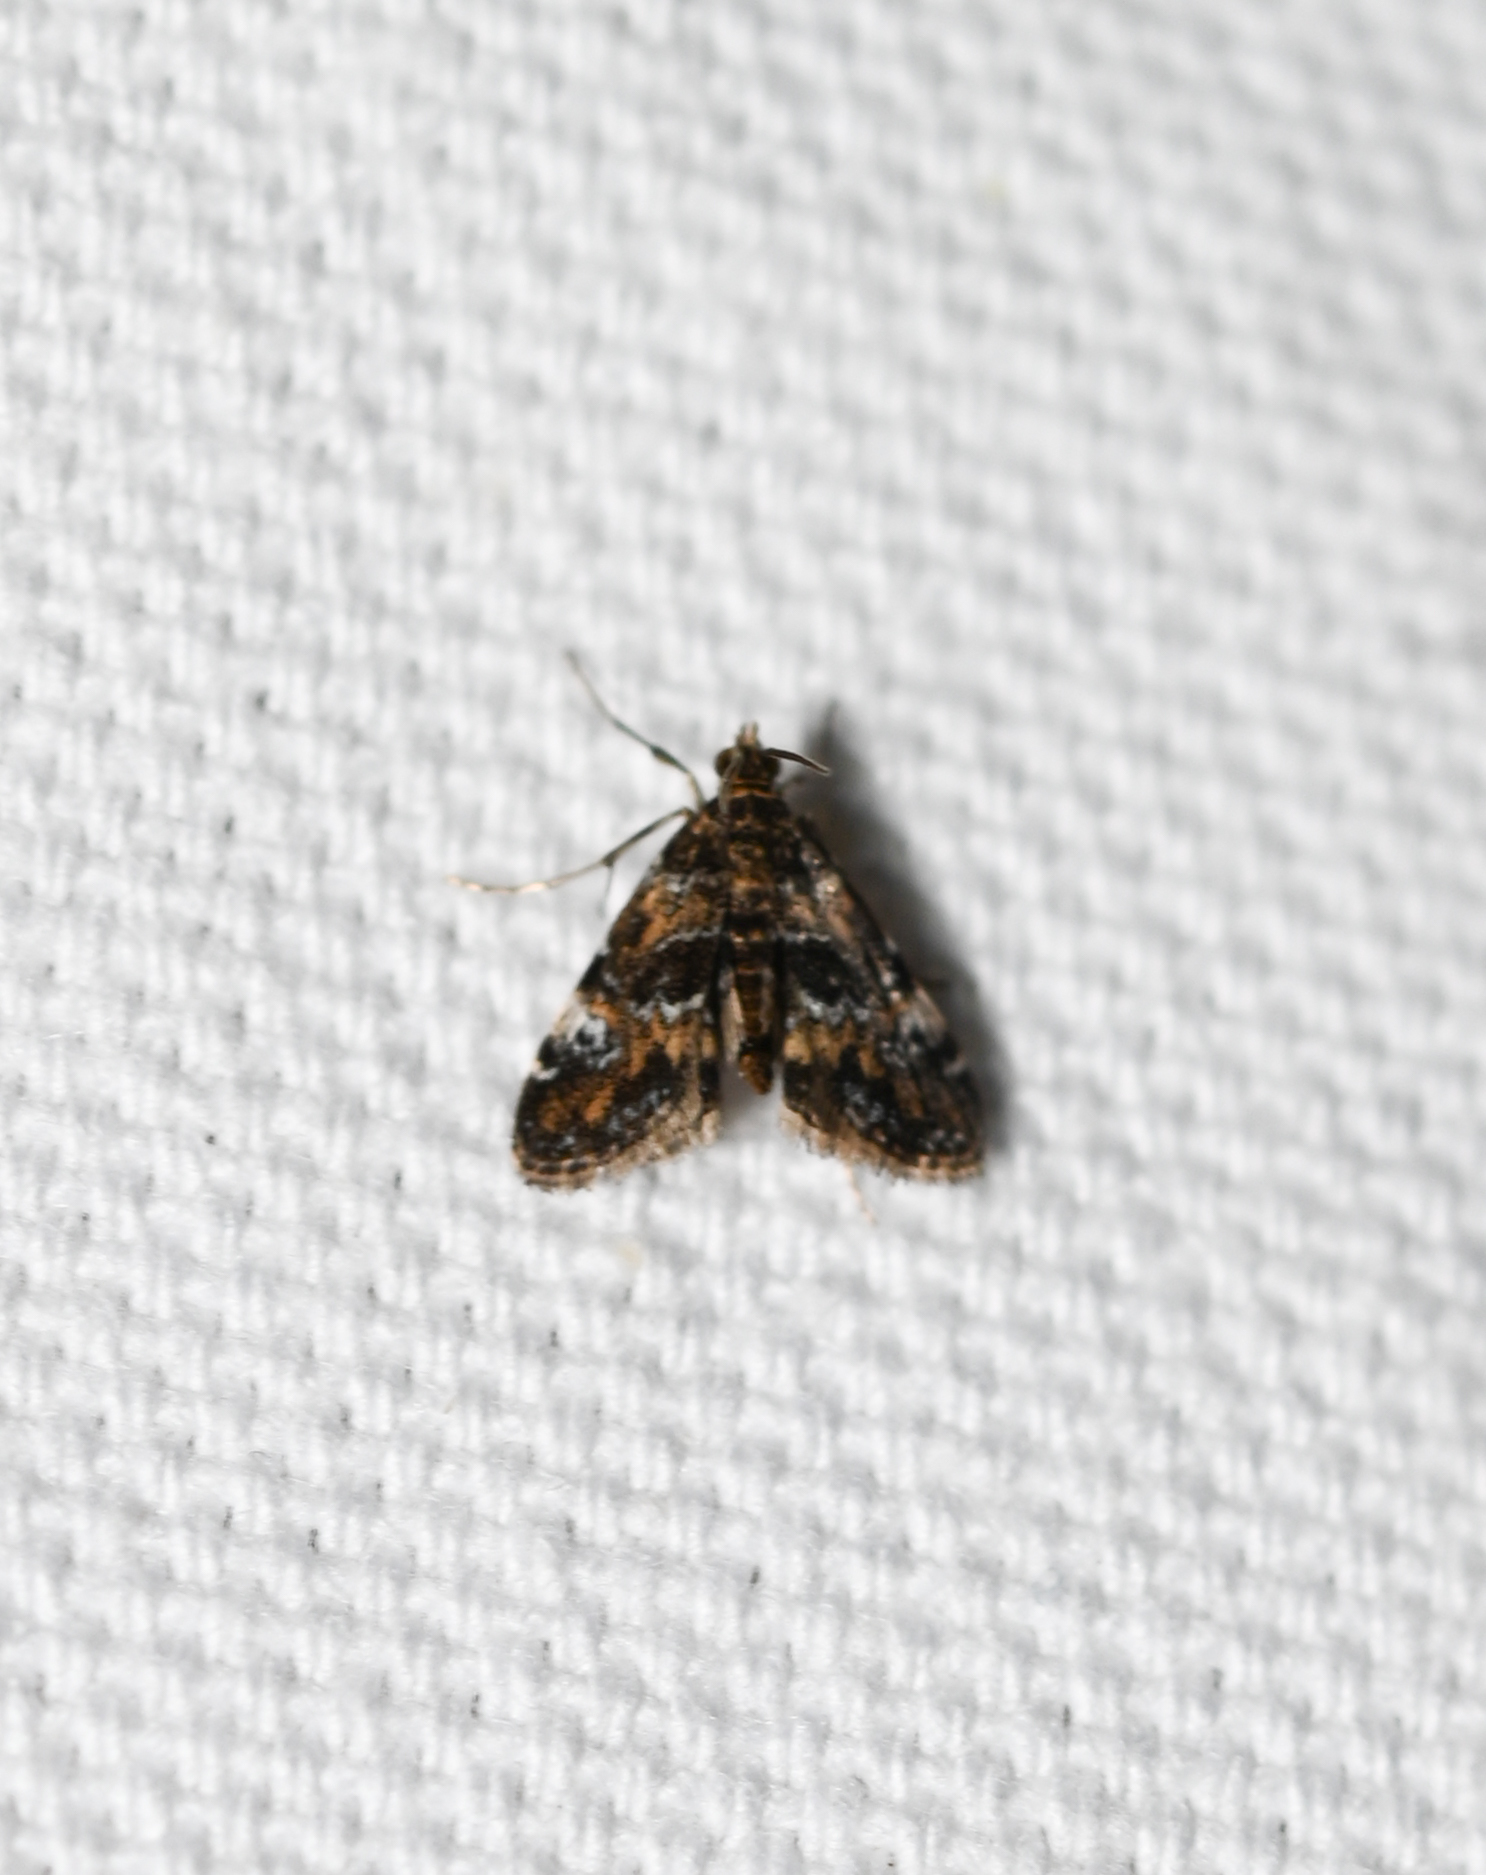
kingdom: Animalia
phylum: Arthropoda
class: Insecta
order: Lepidoptera
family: Crambidae
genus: Elophila
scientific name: Elophila obliteralis
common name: Waterlily leafcutter moth
